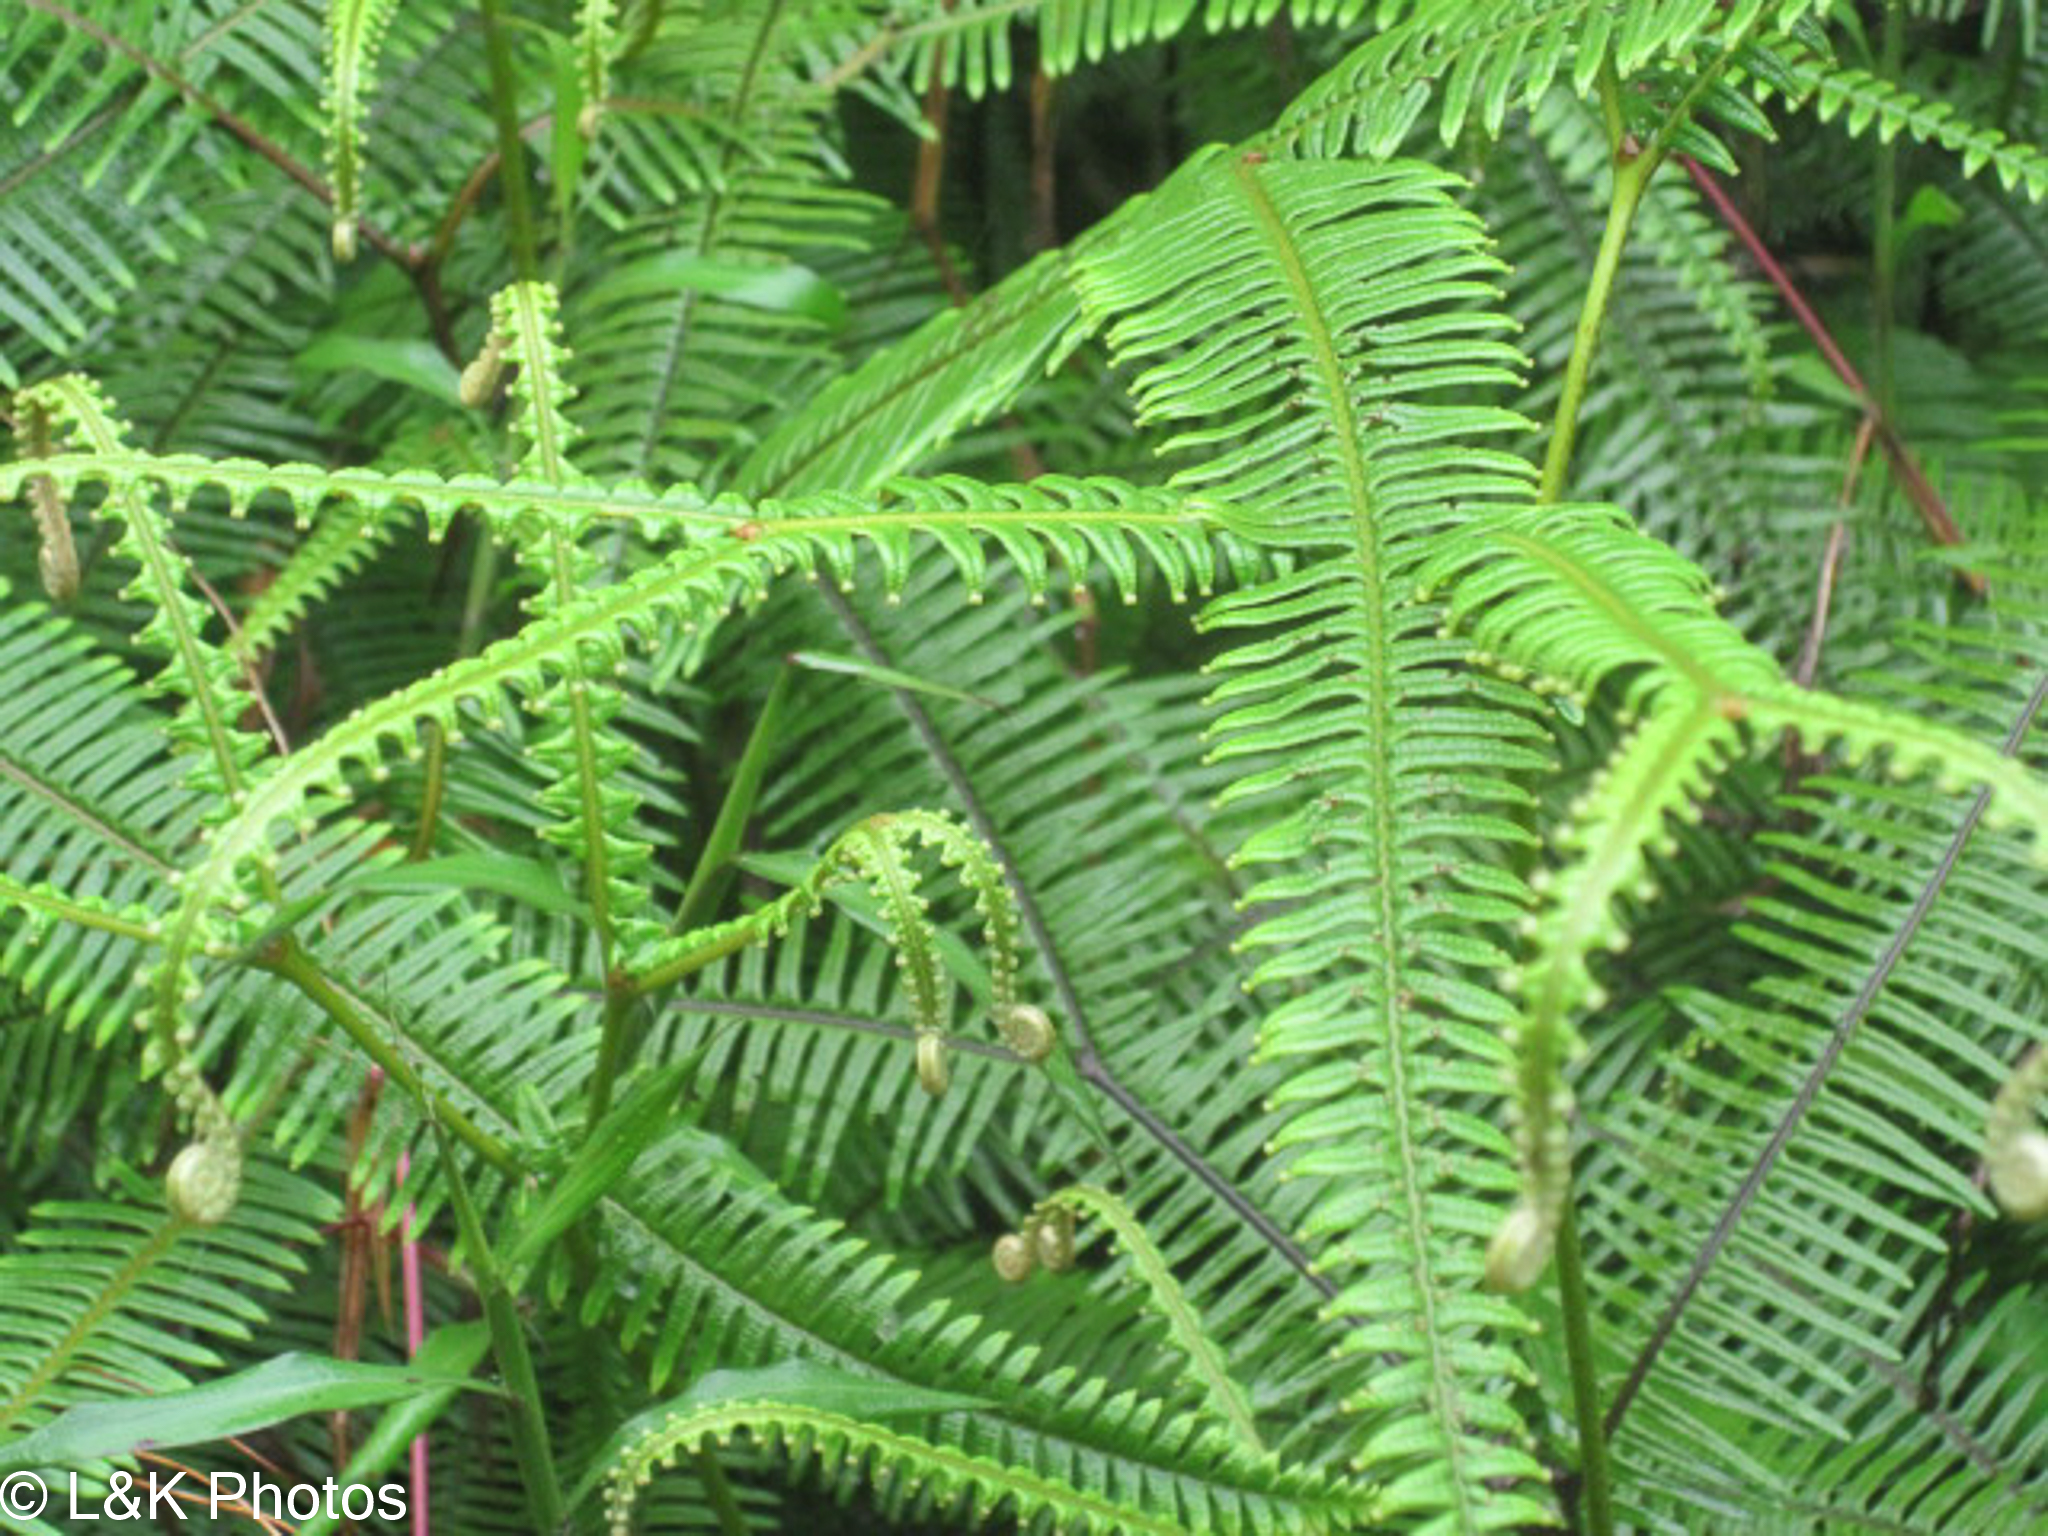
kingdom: Plantae
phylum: Tracheophyta
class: Polypodiopsida
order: Gleicheniales
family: Gleicheniaceae
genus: Sticherus
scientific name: Sticherus bifidus
